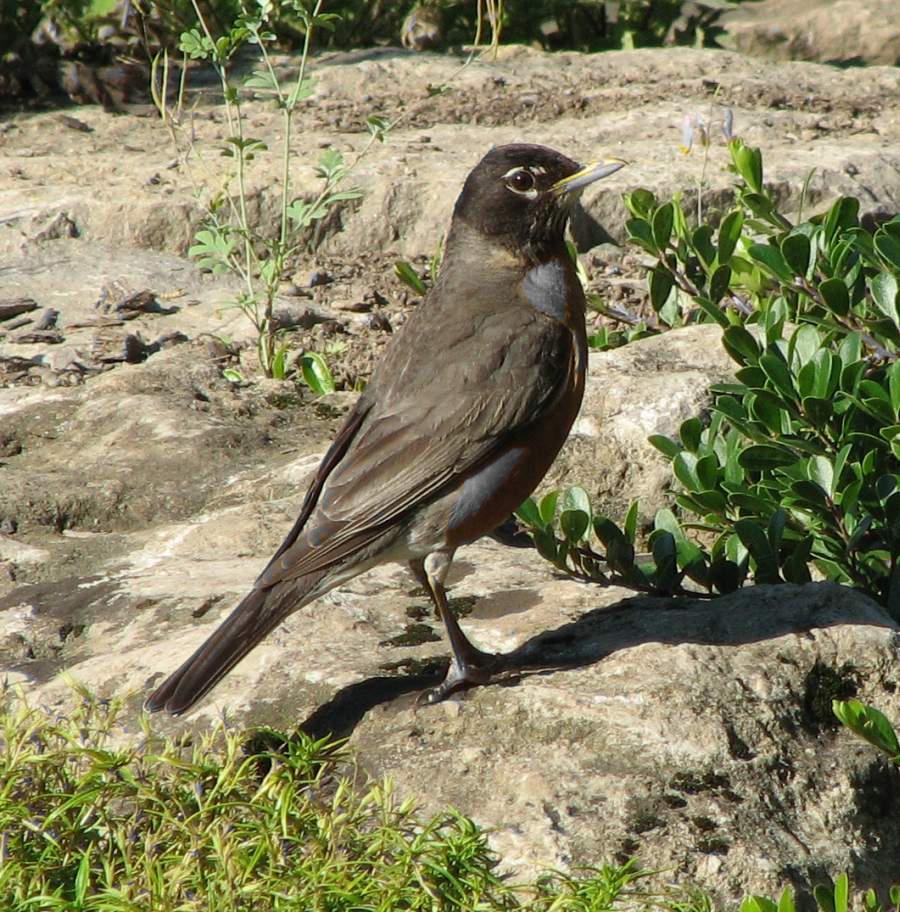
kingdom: Animalia
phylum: Chordata
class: Aves
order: Passeriformes
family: Turdidae
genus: Turdus
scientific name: Turdus migratorius
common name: American robin
